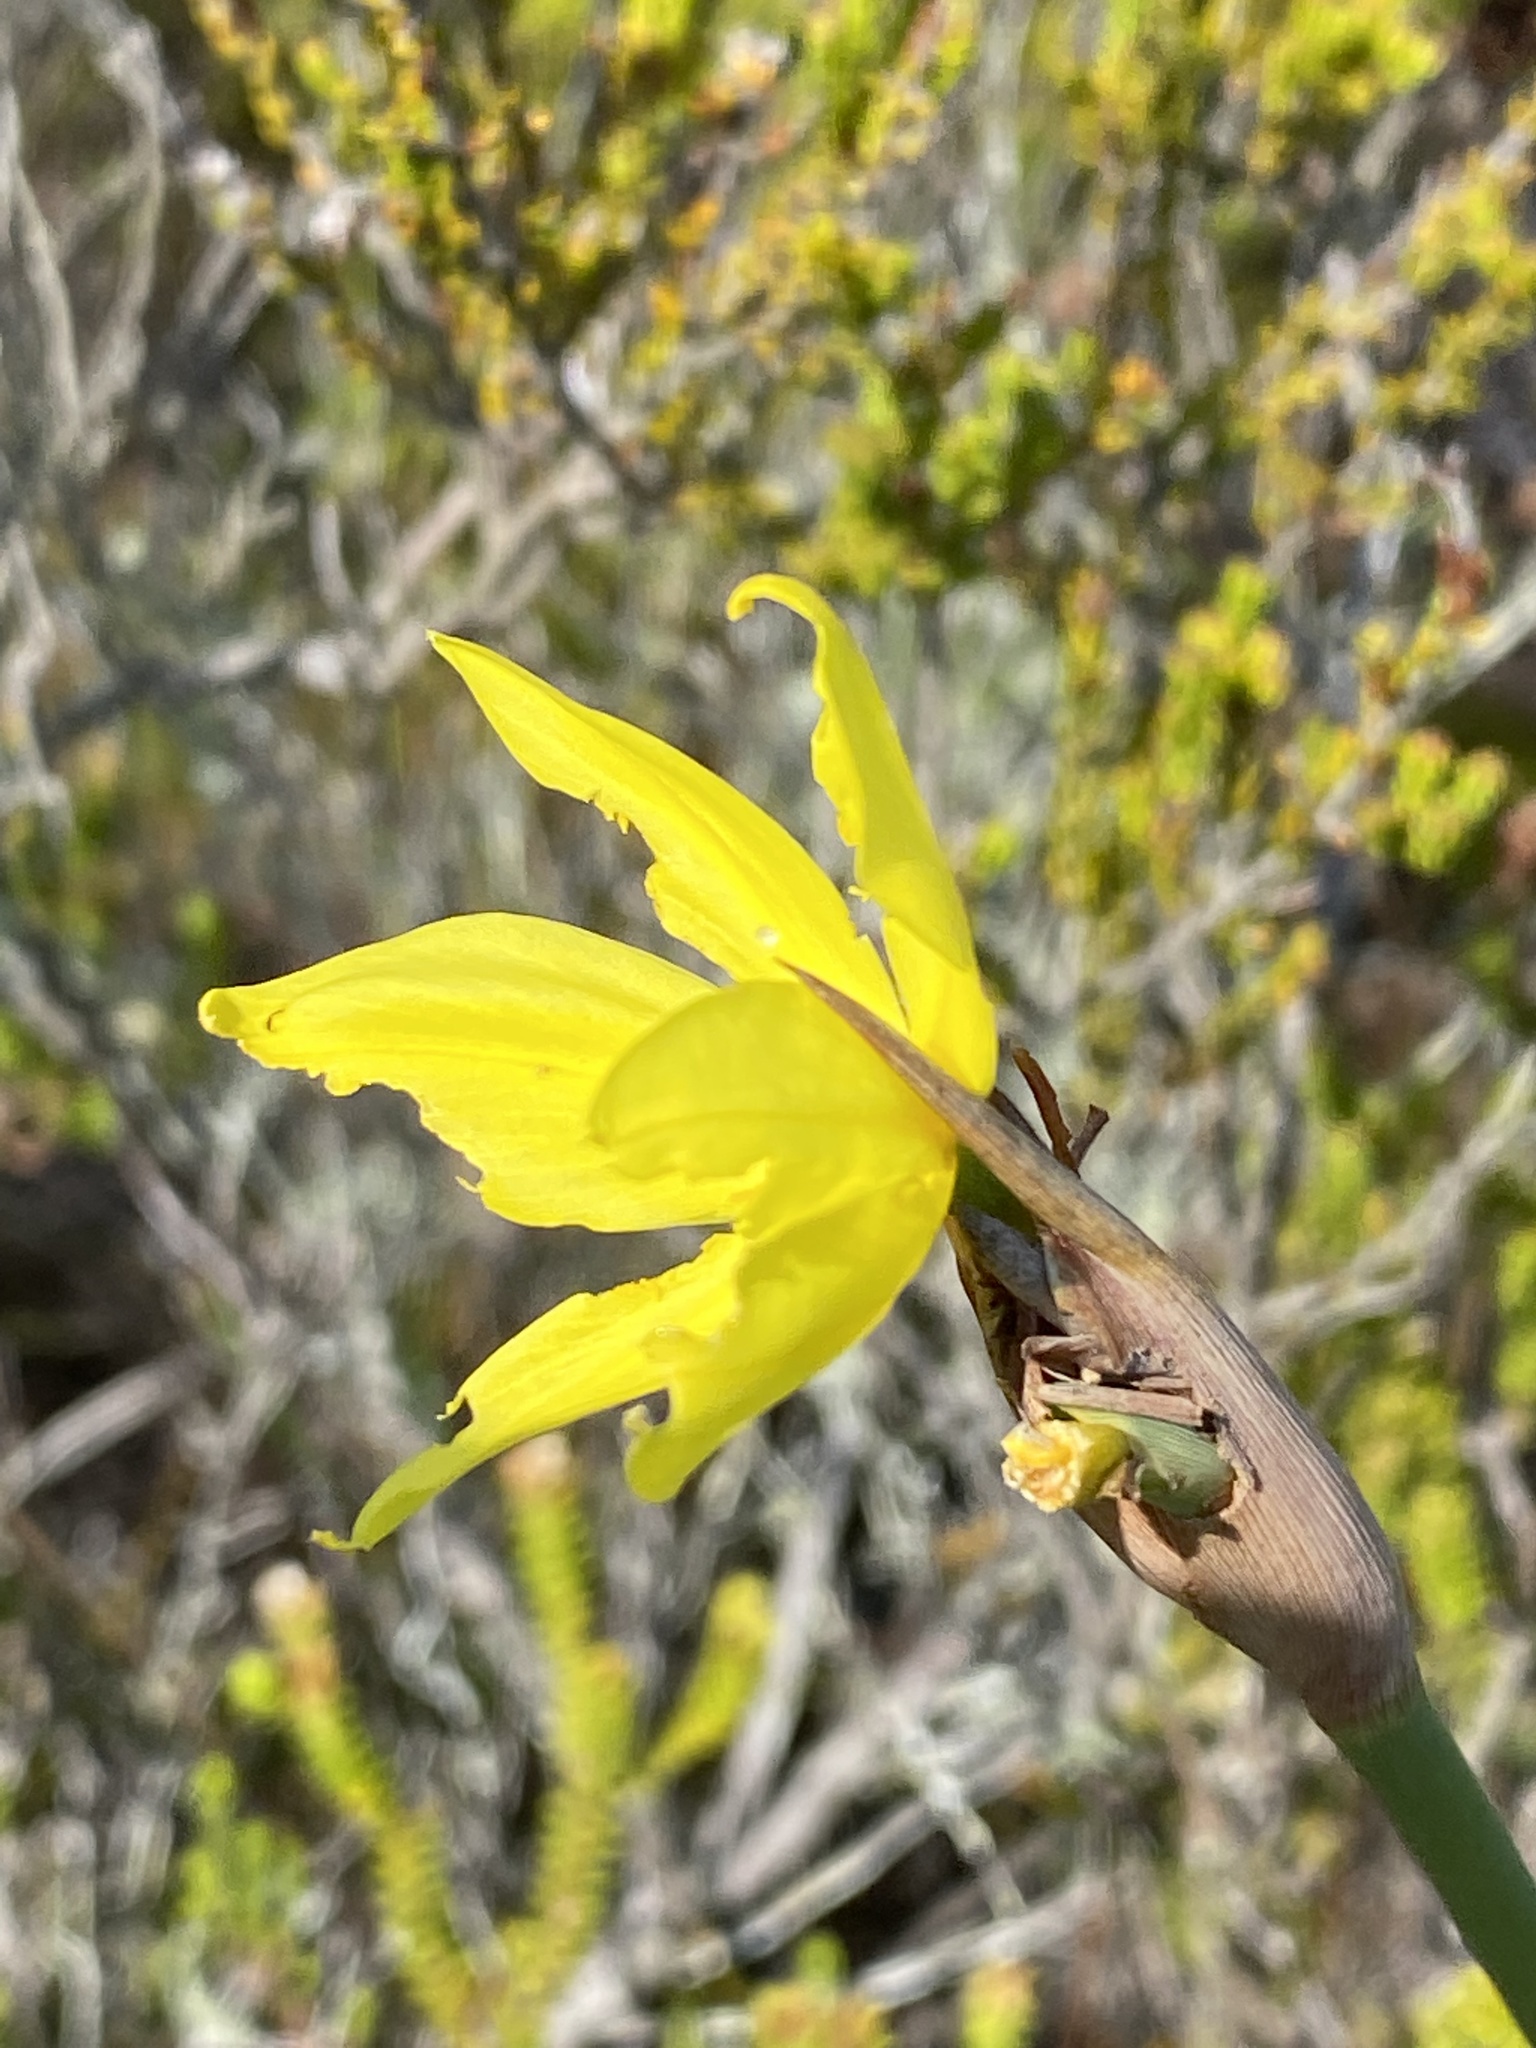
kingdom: Plantae
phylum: Tracheophyta
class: Liliopsida
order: Asparagales
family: Iridaceae
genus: Bobartia
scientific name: Bobartia aphylla
